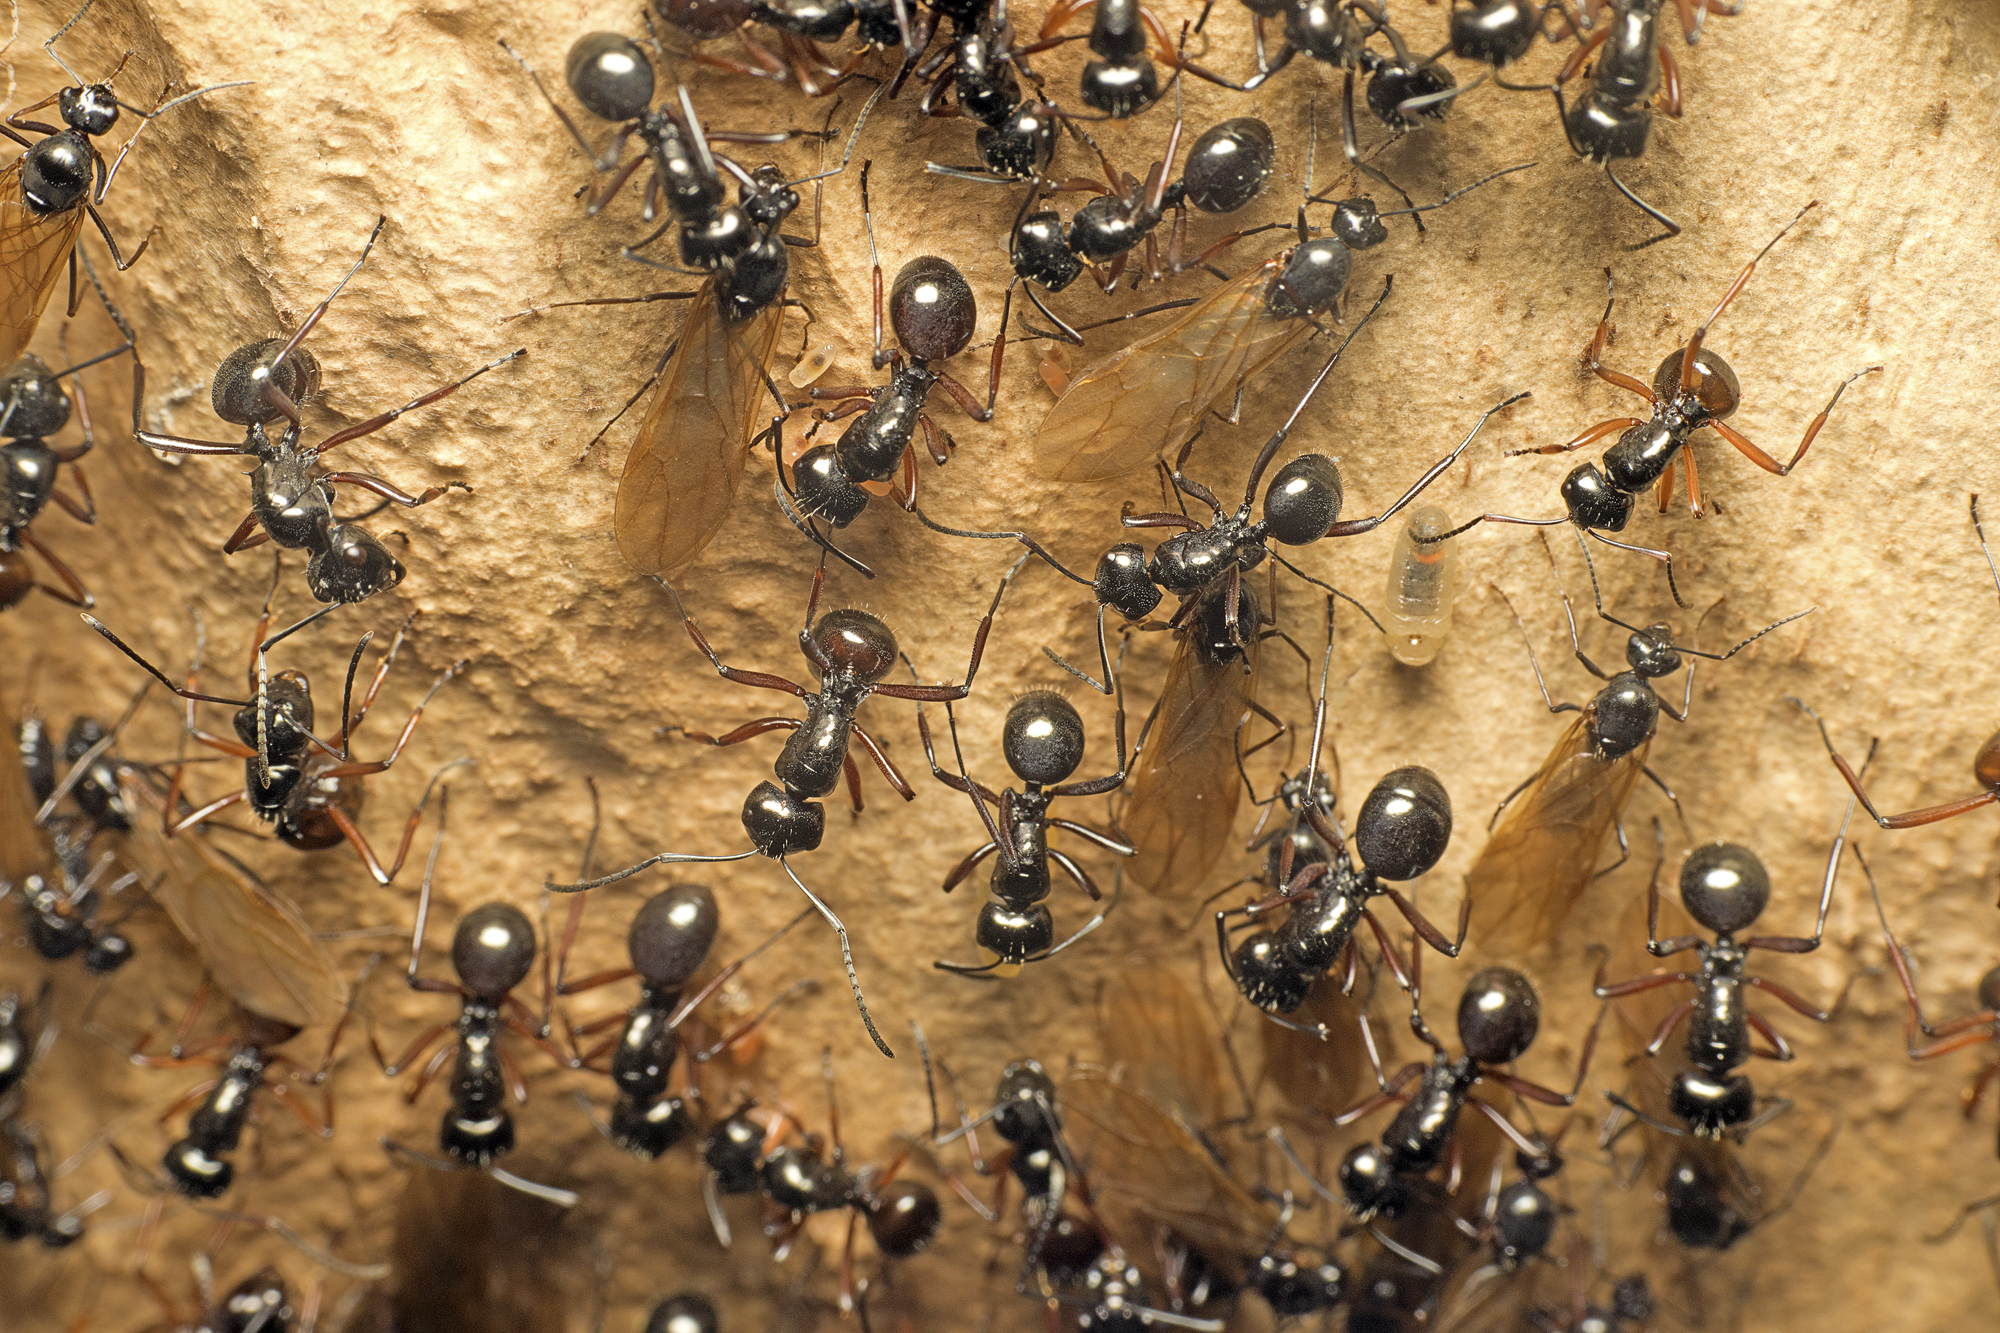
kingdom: Animalia
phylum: Arthropoda
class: Insecta
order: Hymenoptera
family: Formicidae
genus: Polyrhachis
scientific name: Polyrhachis australis
